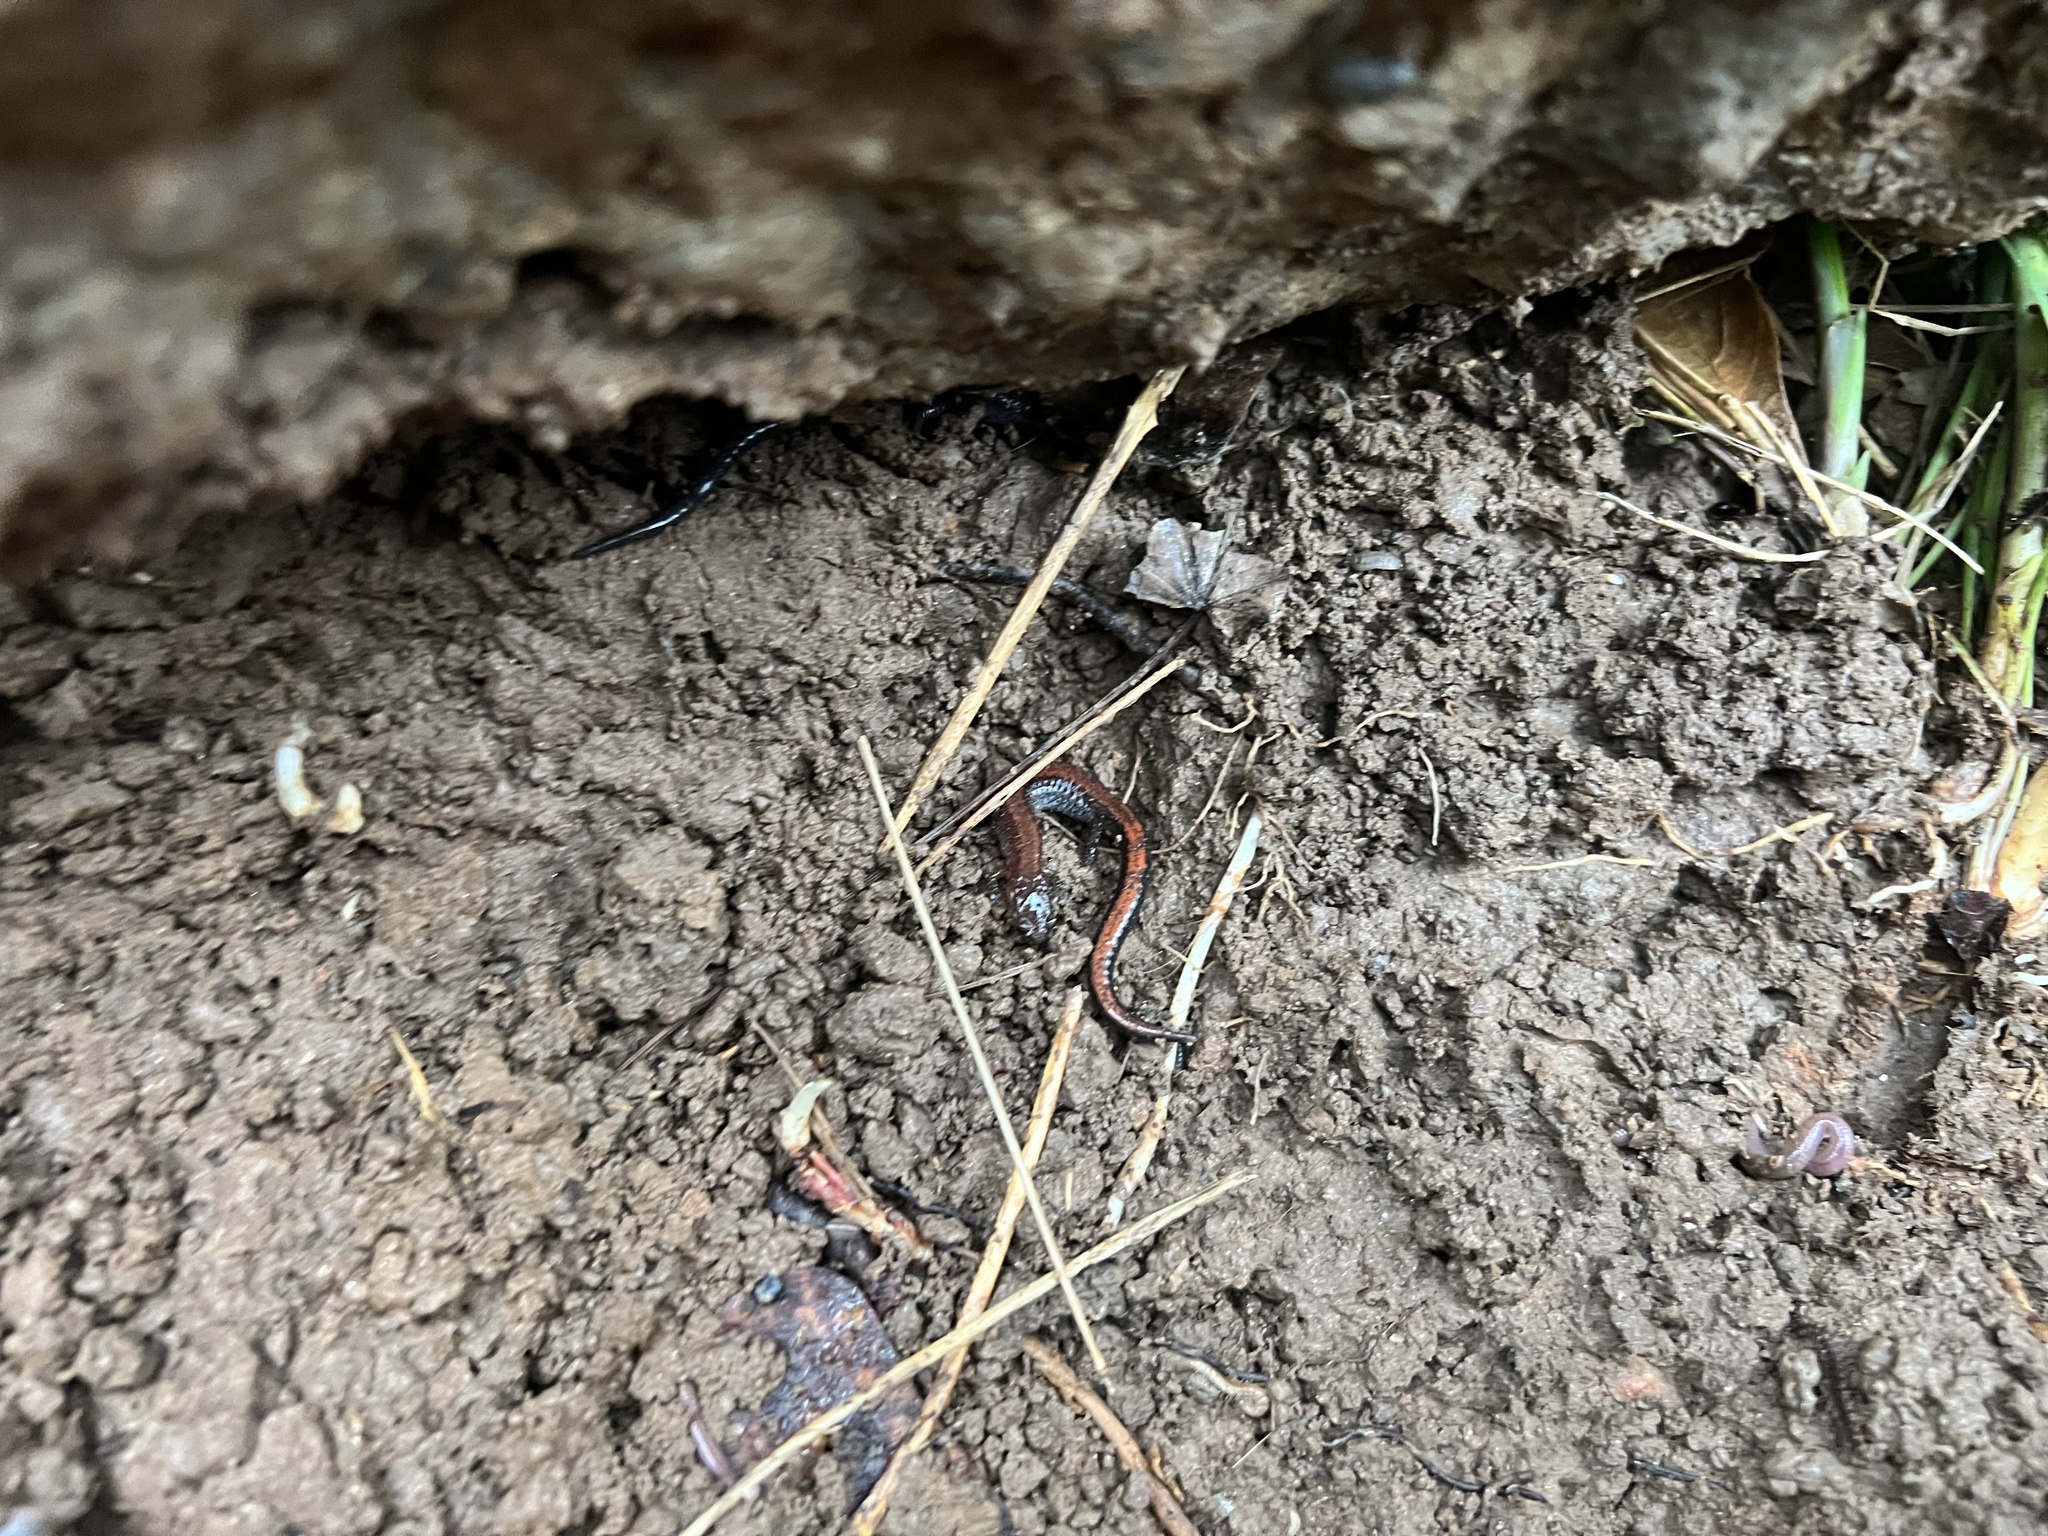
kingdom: Animalia
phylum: Chordata
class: Amphibia
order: Caudata
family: Plethodontidae
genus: Plethodon
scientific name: Plethodon serratus
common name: Southern red-backed salamander
